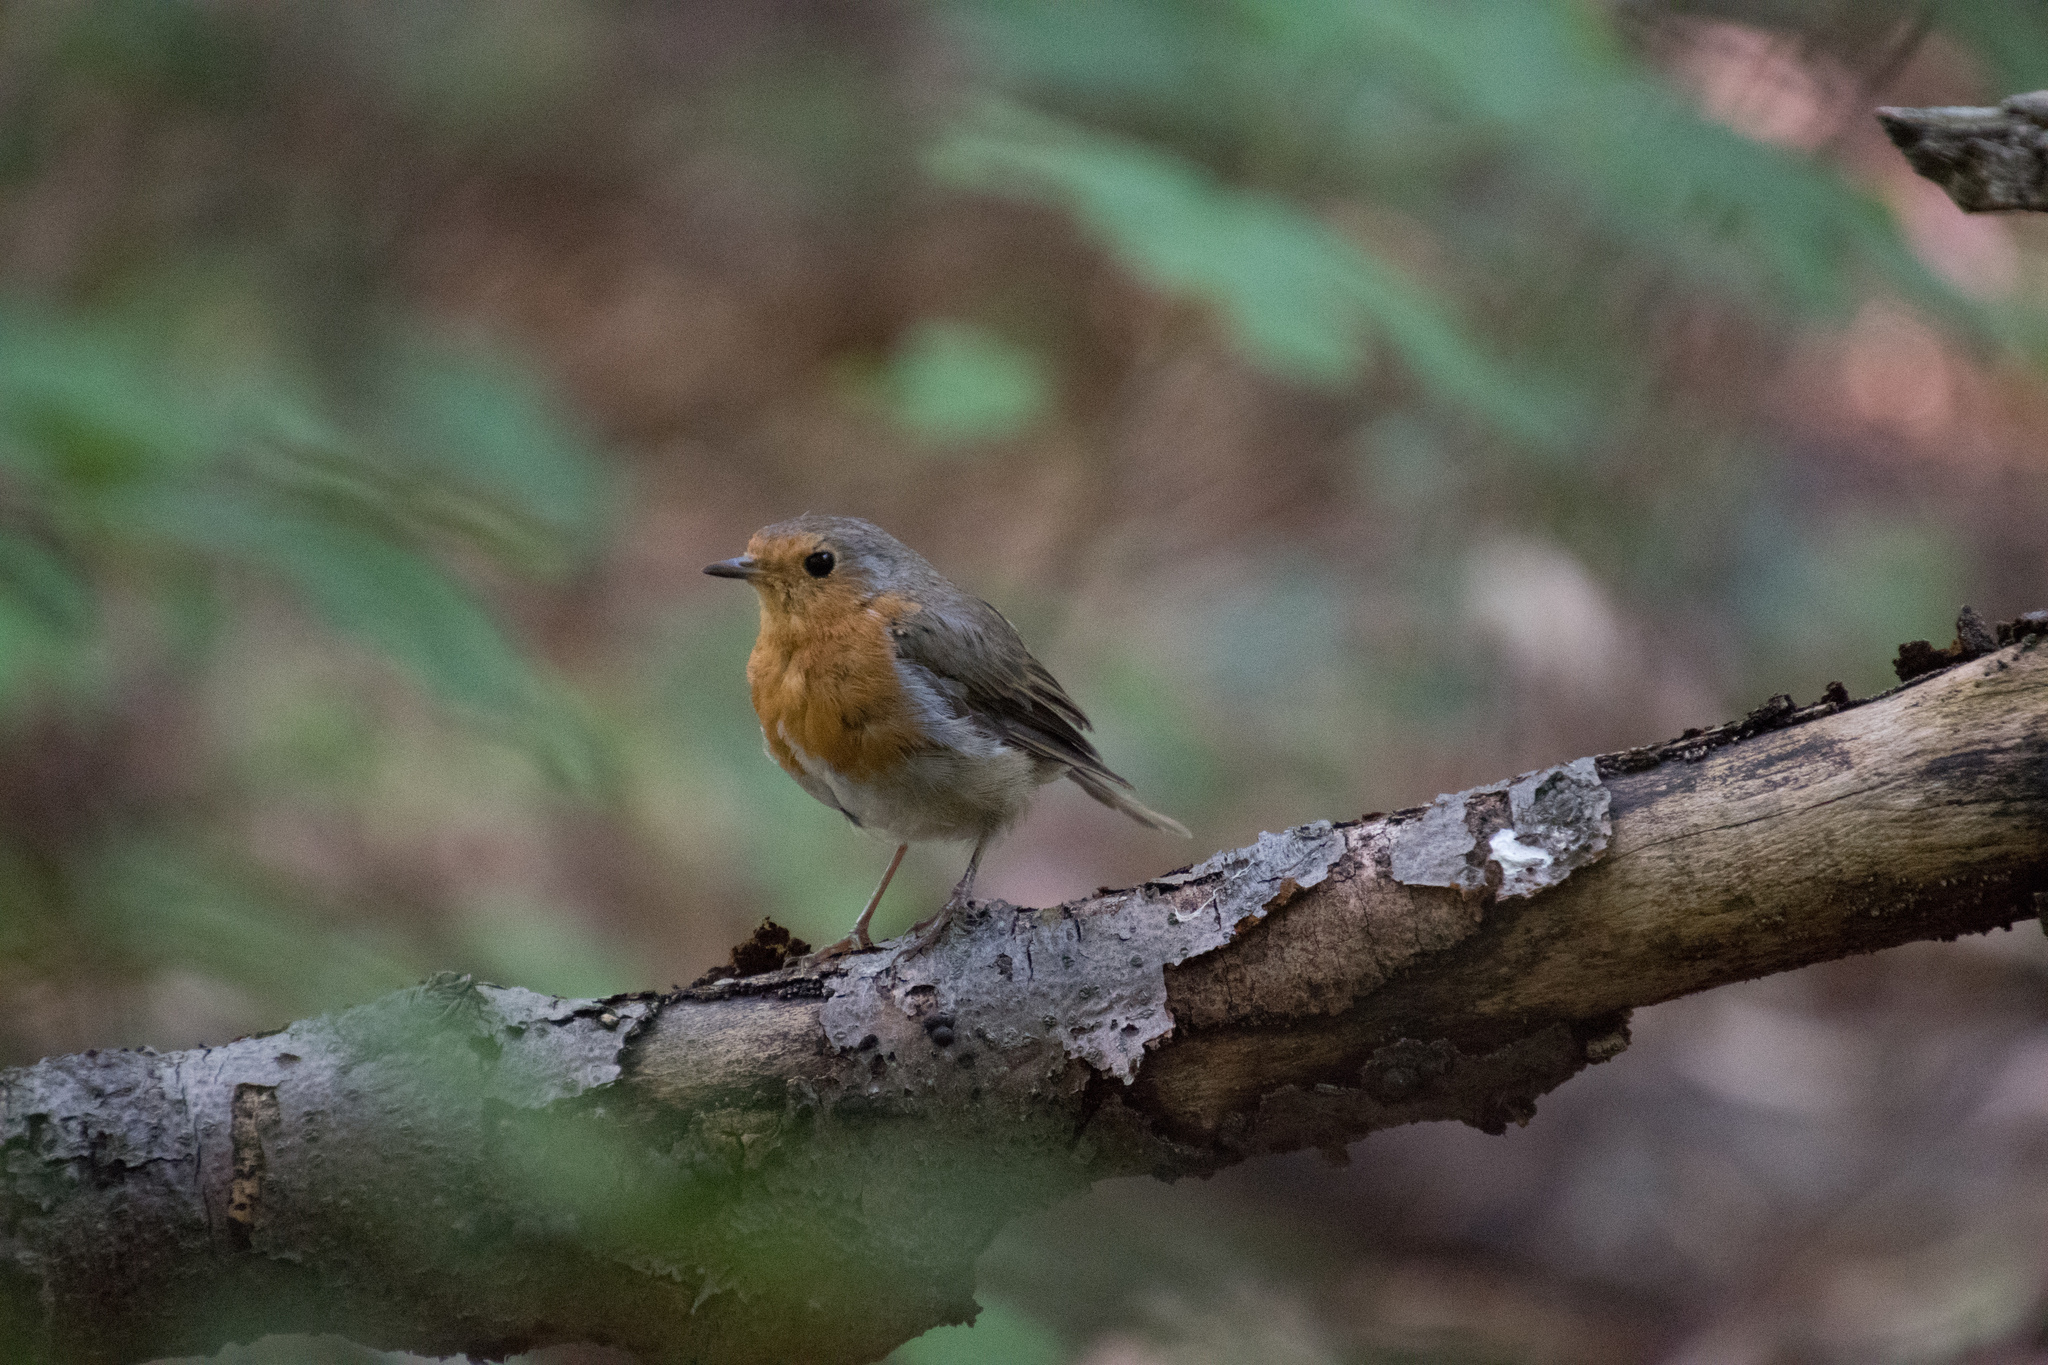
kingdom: Animalia
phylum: Chordata
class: Aves
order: Passeriformes
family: Muscicapidae
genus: Erithacus
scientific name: Erithacus rubecula
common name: European robin
